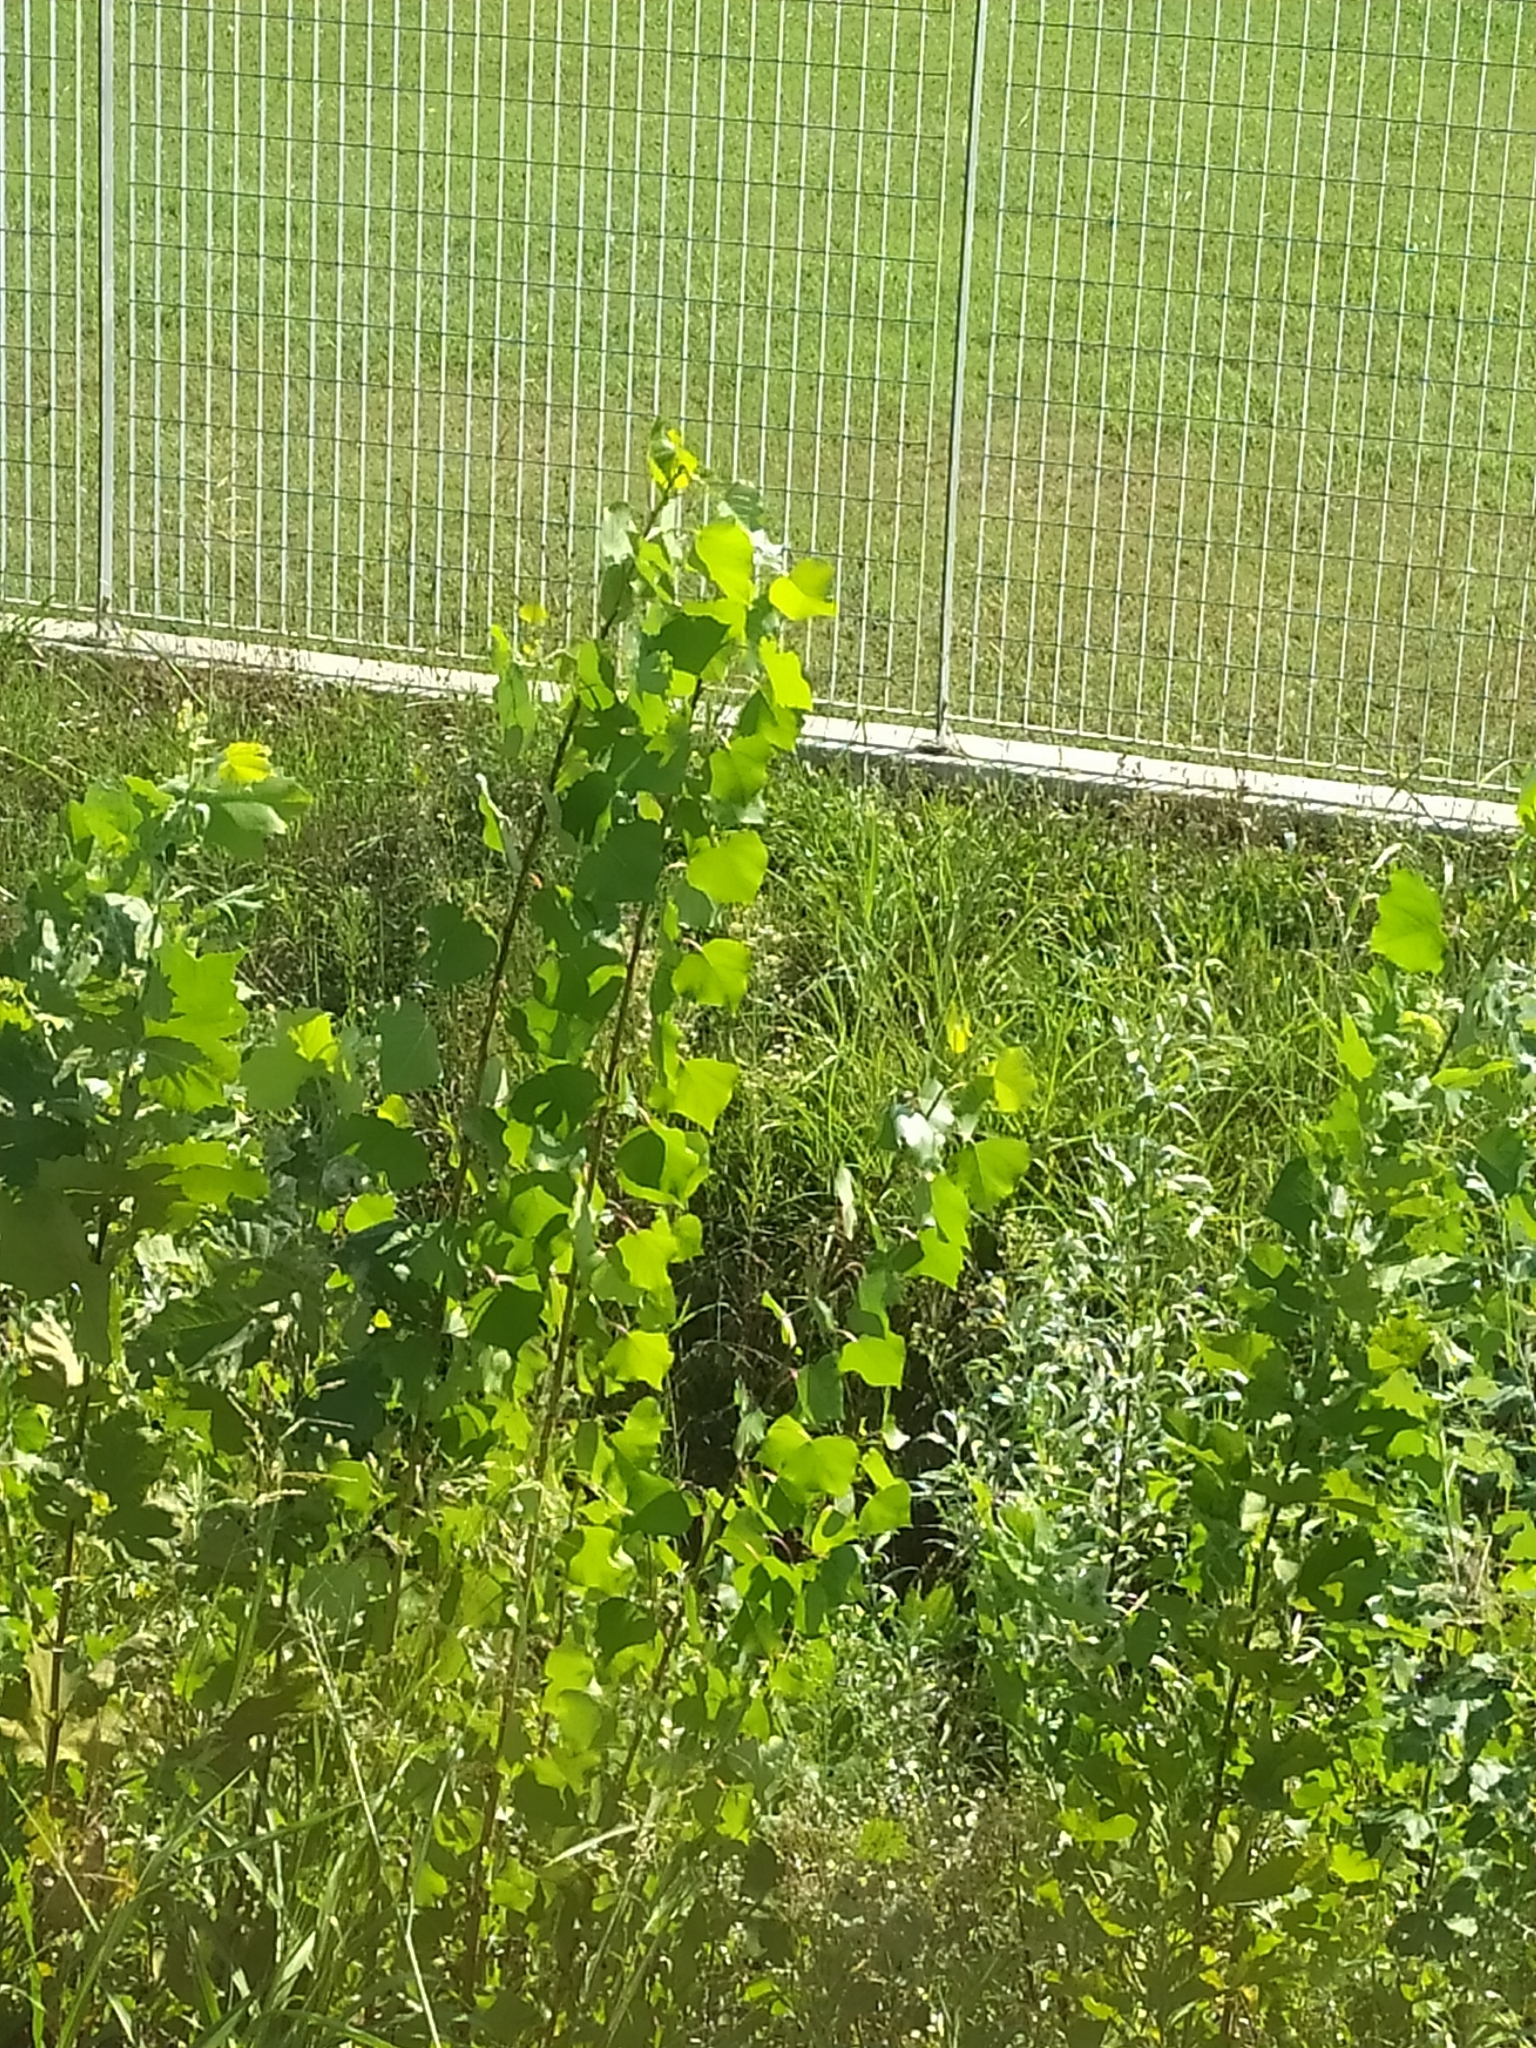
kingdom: Plantae
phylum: Tracheophyta
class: Magnoliopsida
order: Malpighiales
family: Salicaceae
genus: Populus
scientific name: Populus nigra
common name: Black poplar
